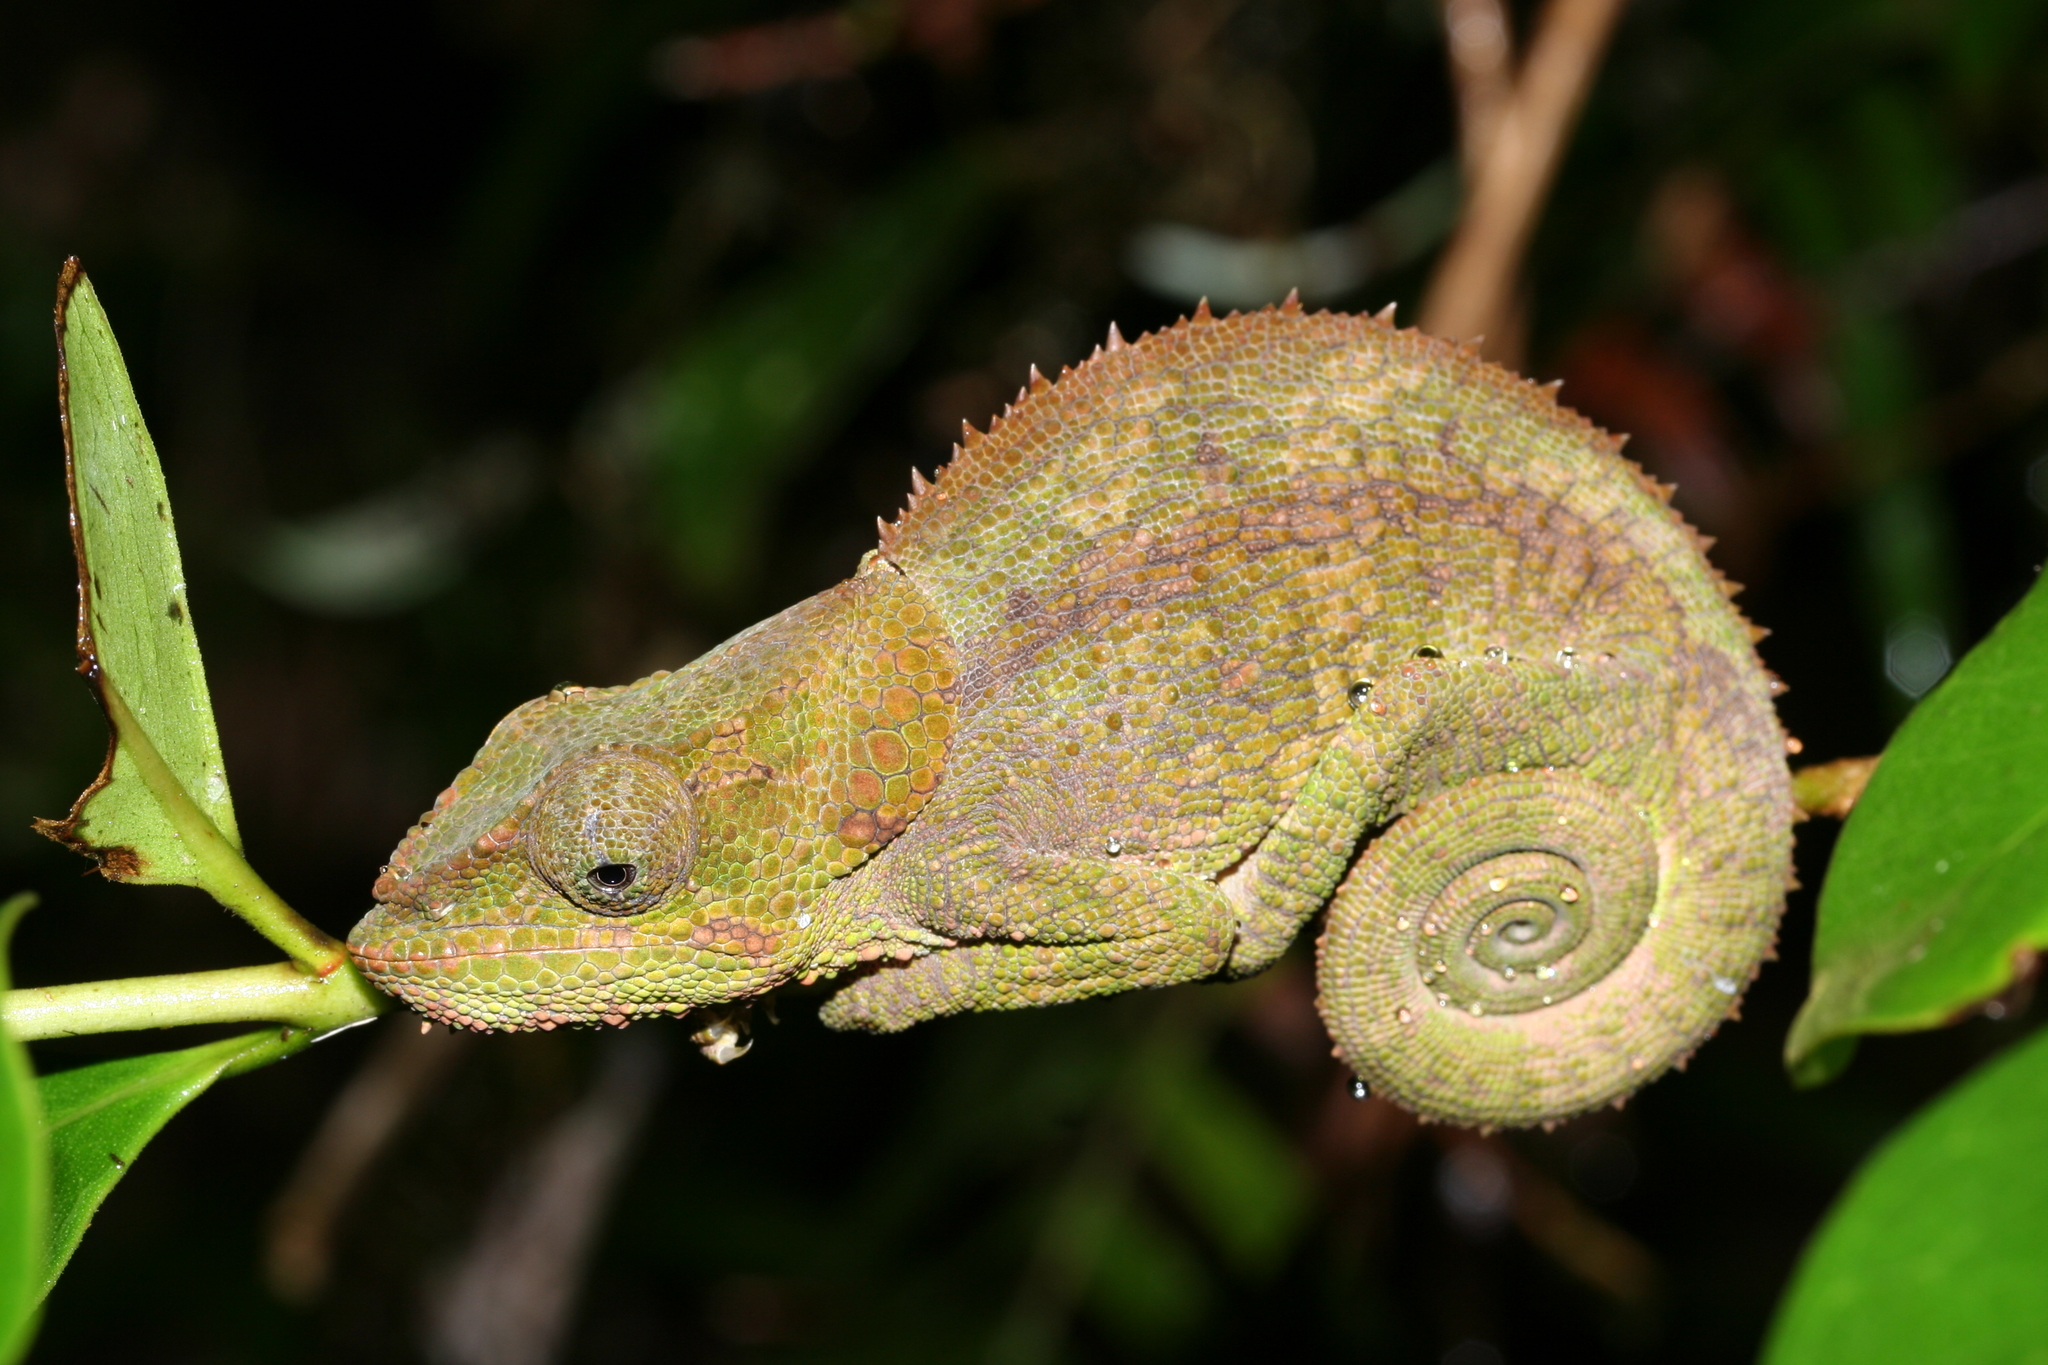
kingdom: Animalia
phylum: Chordata
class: Squamata
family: Chamaeleonidae
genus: Calumma
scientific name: Calumma crypticum
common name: Cryptic chameleon
